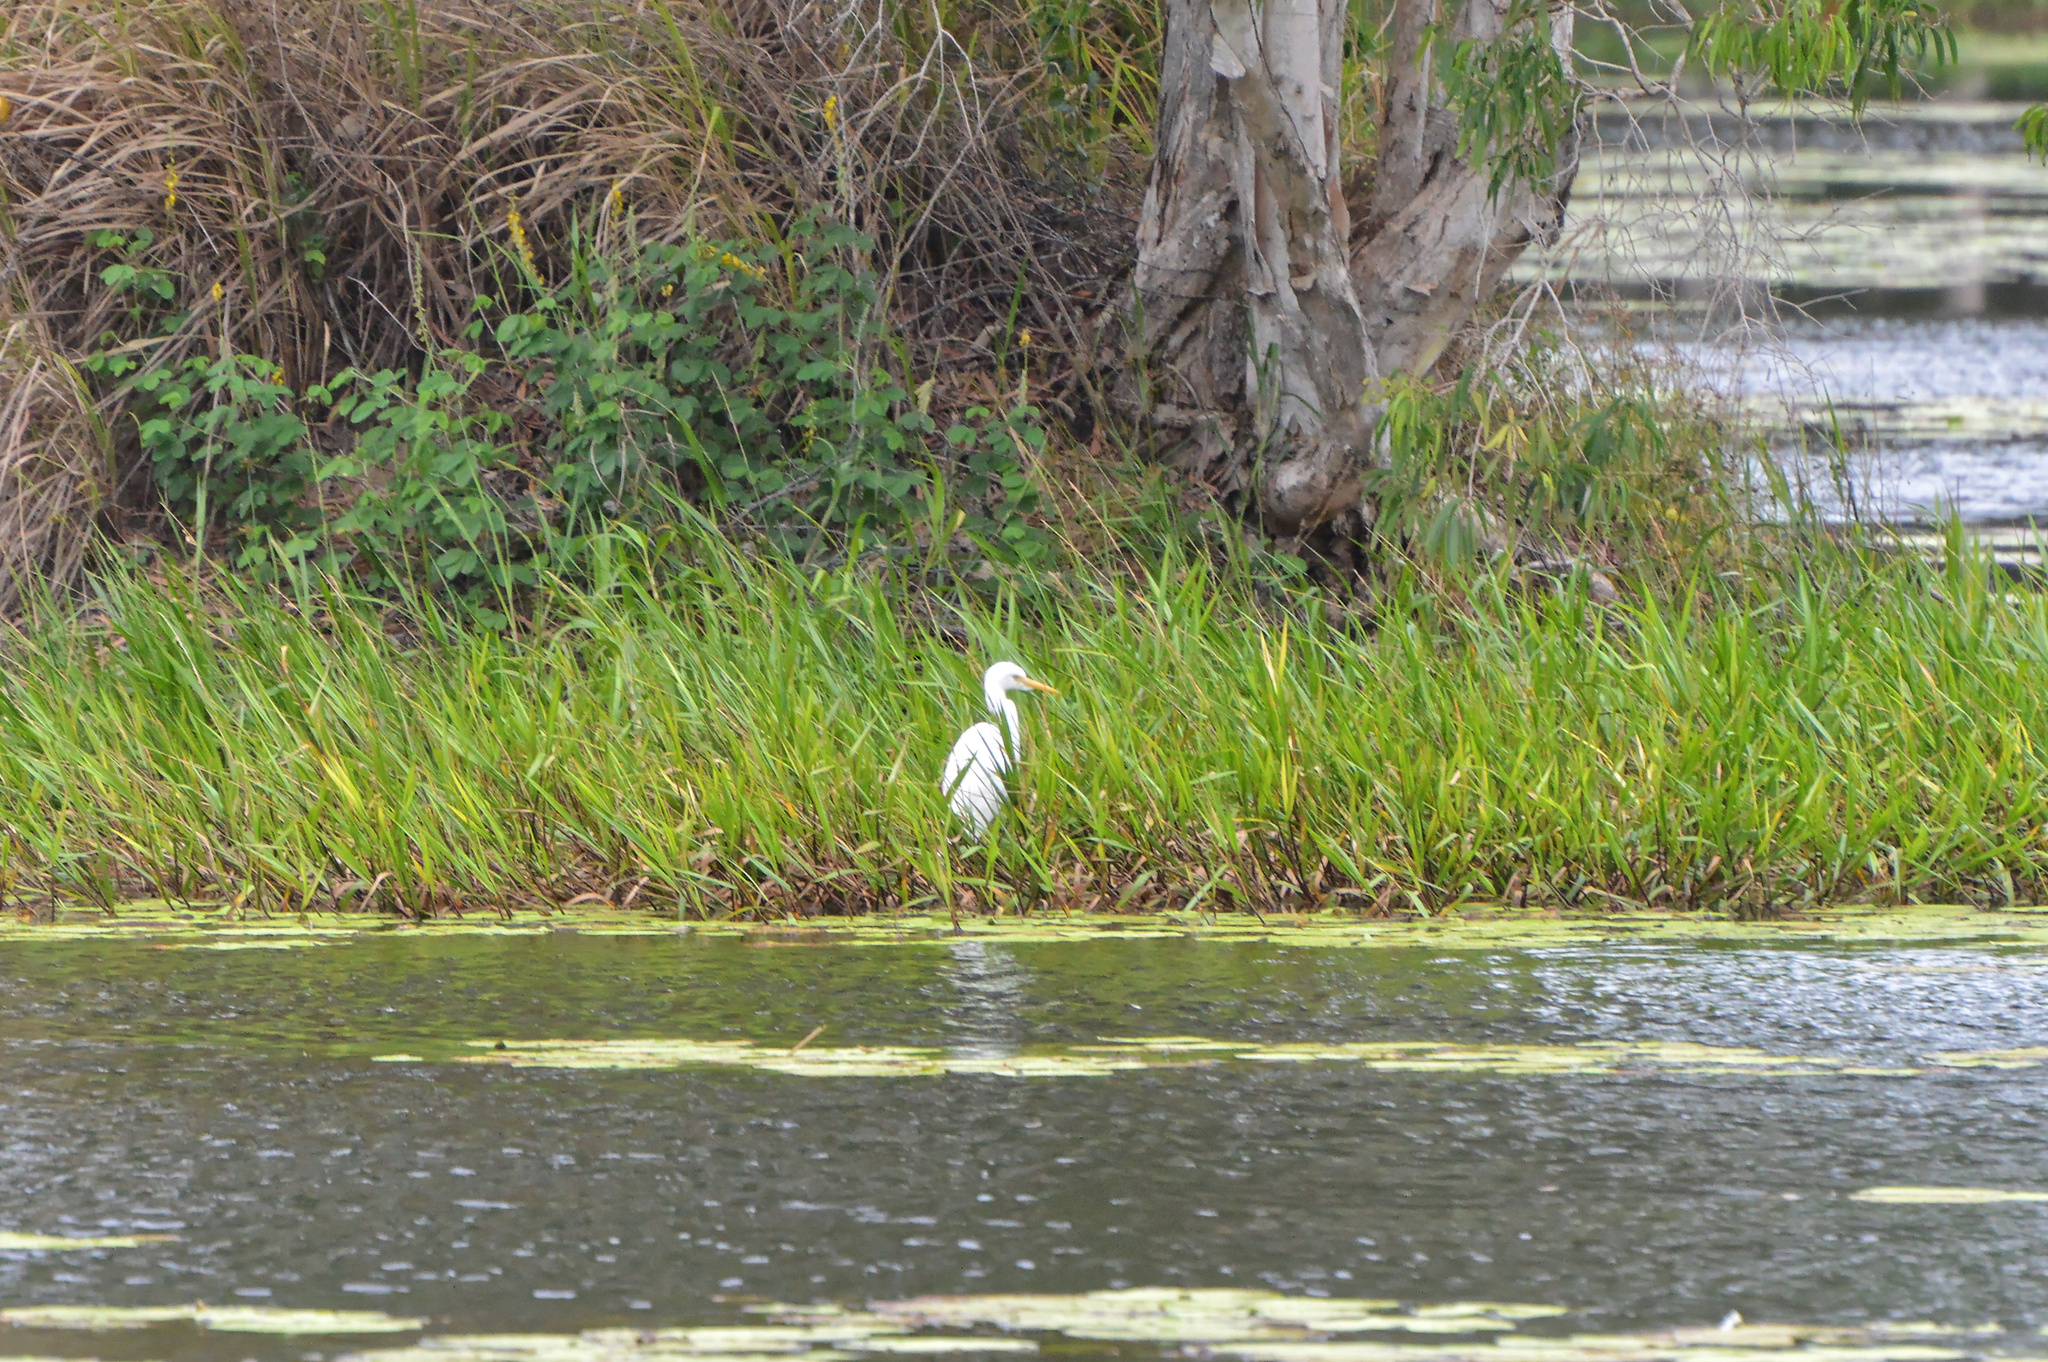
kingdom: Animalia
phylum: Chordata
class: Aves
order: Pelecaniformes
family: Ardeidae
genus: Egretta
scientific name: Egretta intermedia
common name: Intermediate egret
